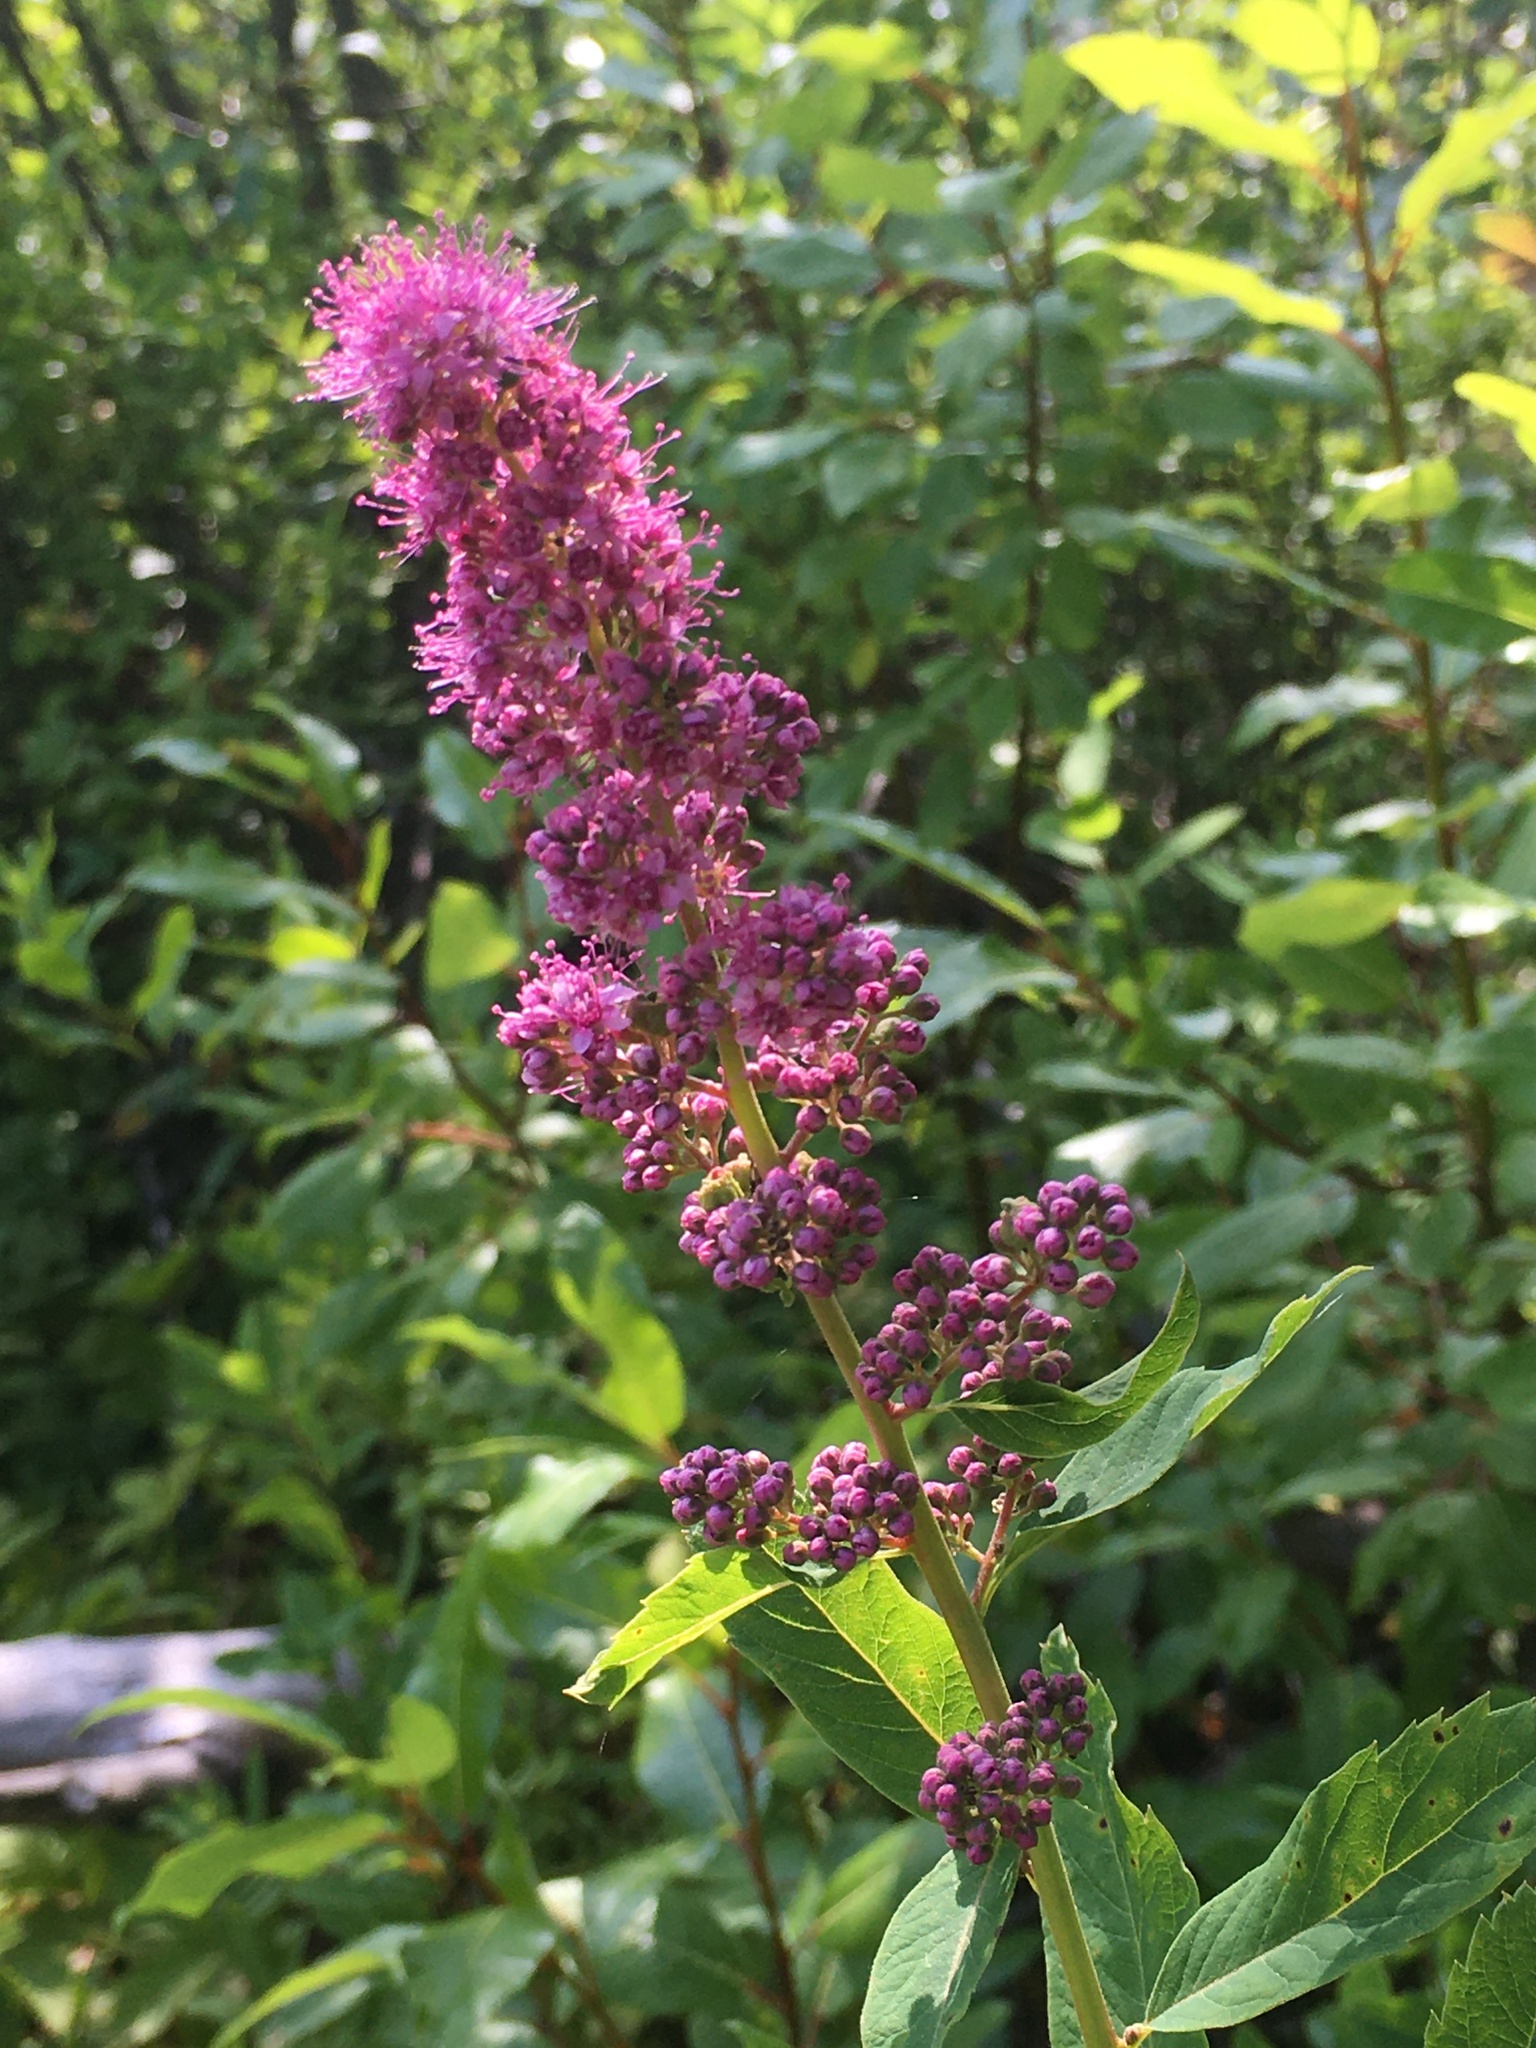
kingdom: Plantae
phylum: Tracheophyta
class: Magnoliopsida
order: Rosales
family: Rosaceae
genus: Spiraea
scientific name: Spiraea douglasii
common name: Steeplebush
